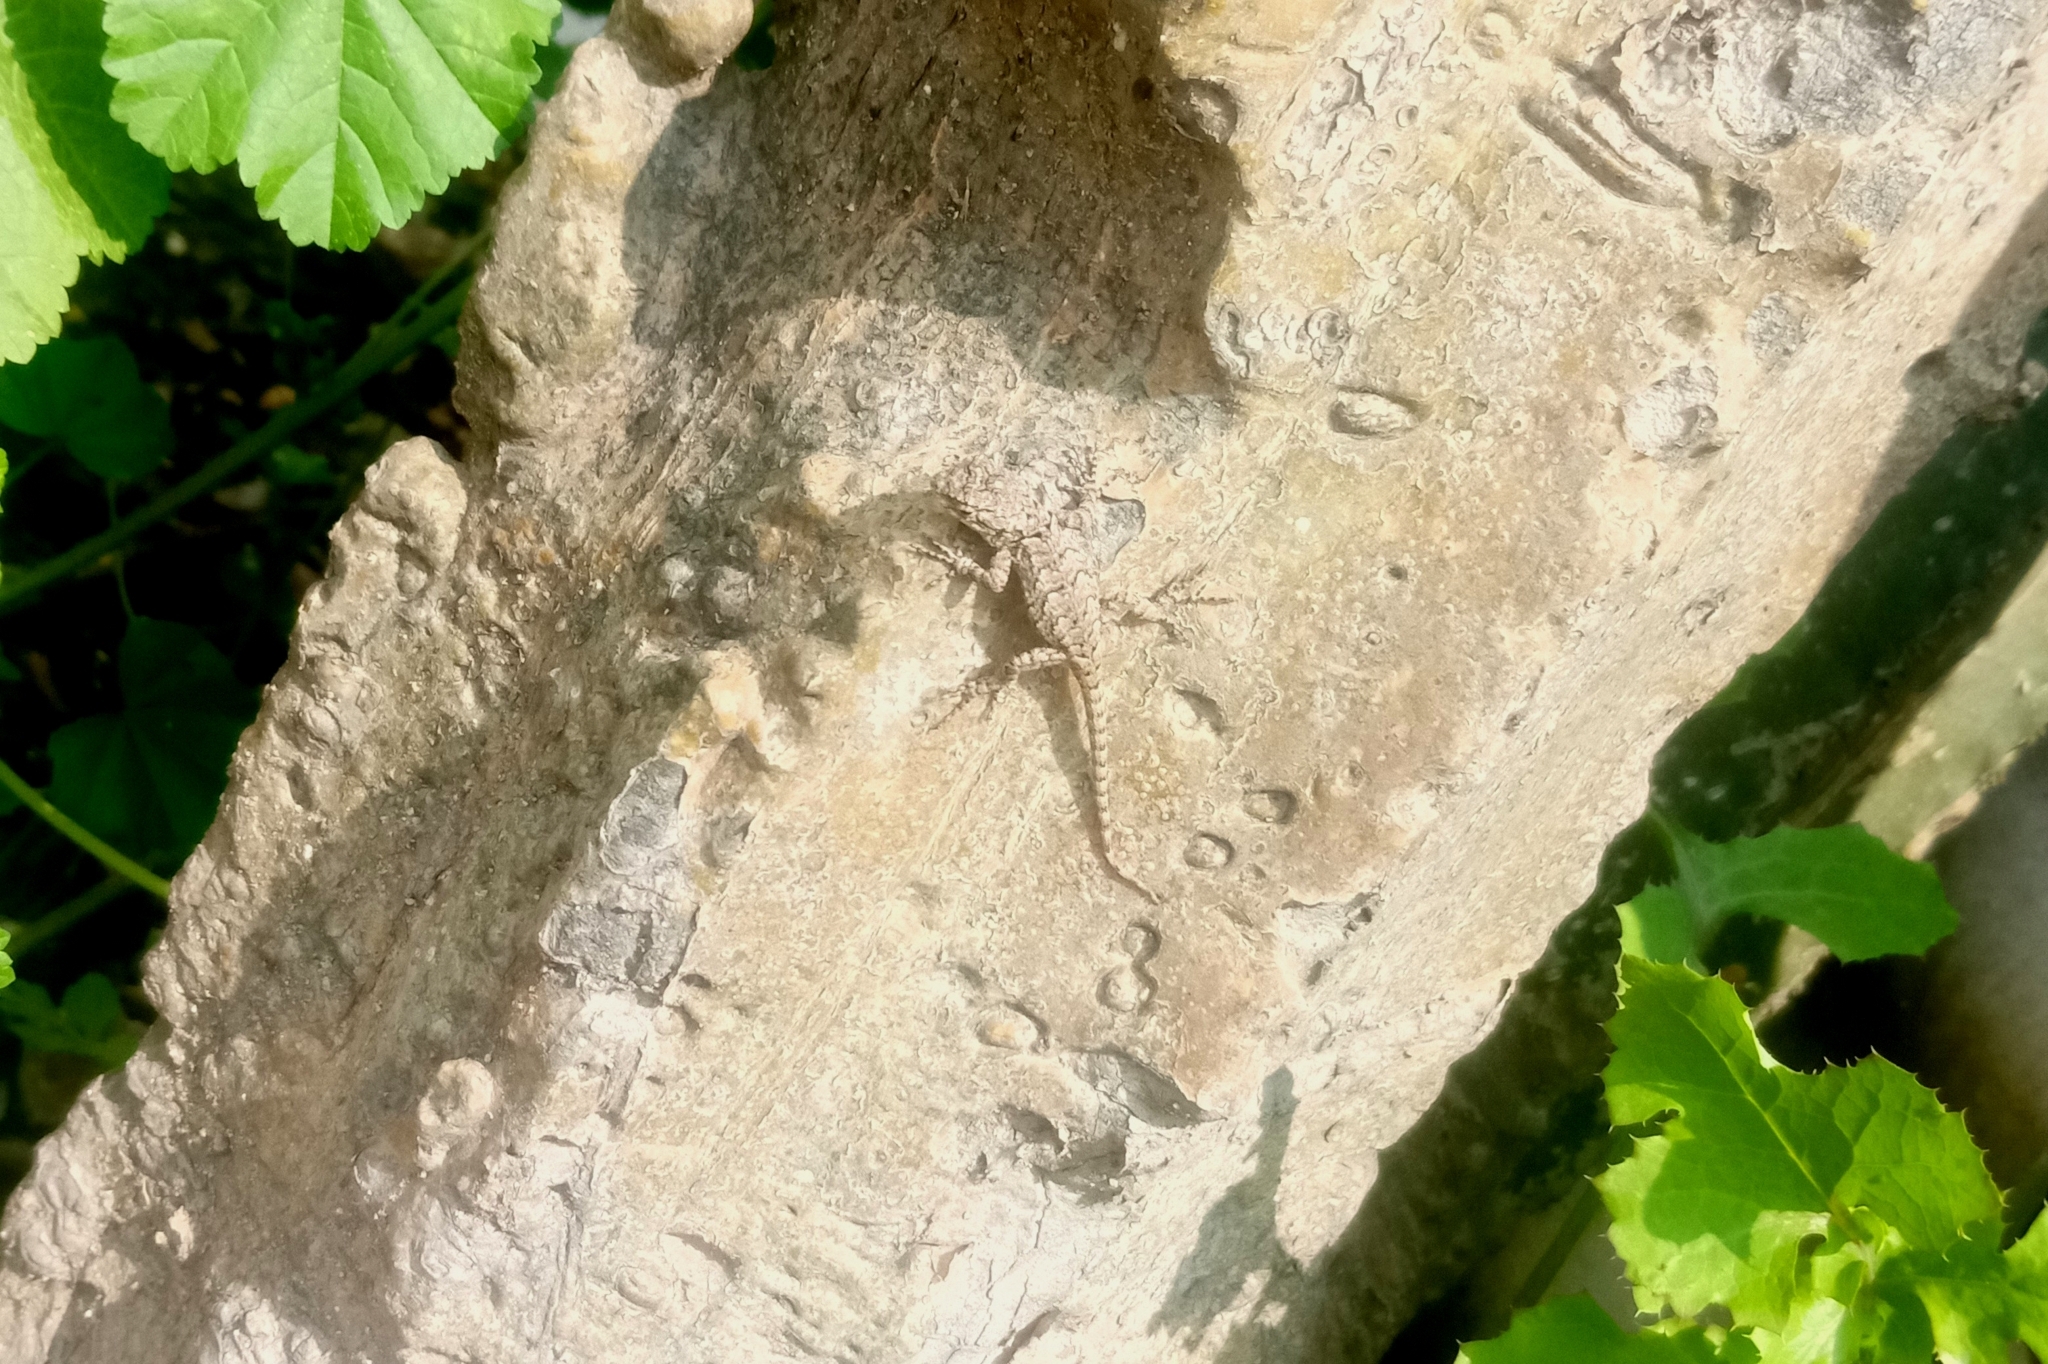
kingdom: Animalia
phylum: Chordata
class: Squamata
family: Phrynosomatidae
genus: Sceloporus
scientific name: Sceloporus grammicus
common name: Mesquite lizard
